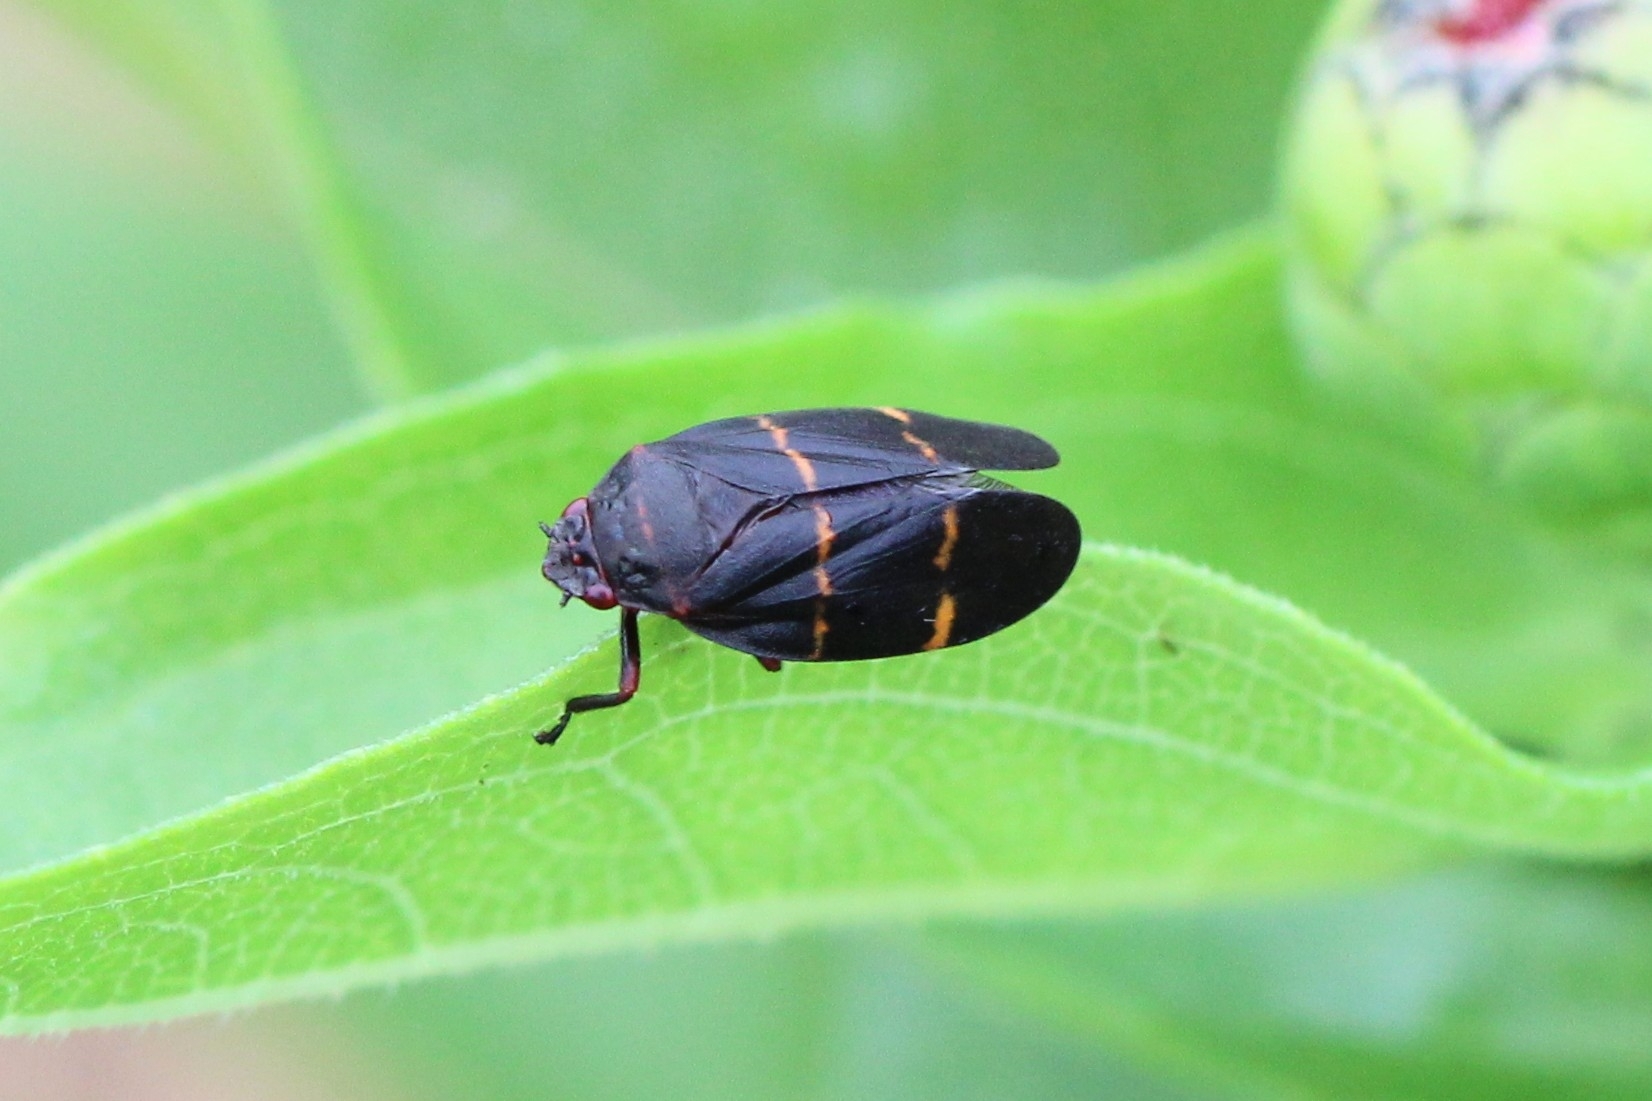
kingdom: Animalia
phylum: Arthropoda
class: Insecta
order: Hemiptera
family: Cercopidae
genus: Prosapia
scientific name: Prosapia bicincta
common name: Twolined spittlebug
